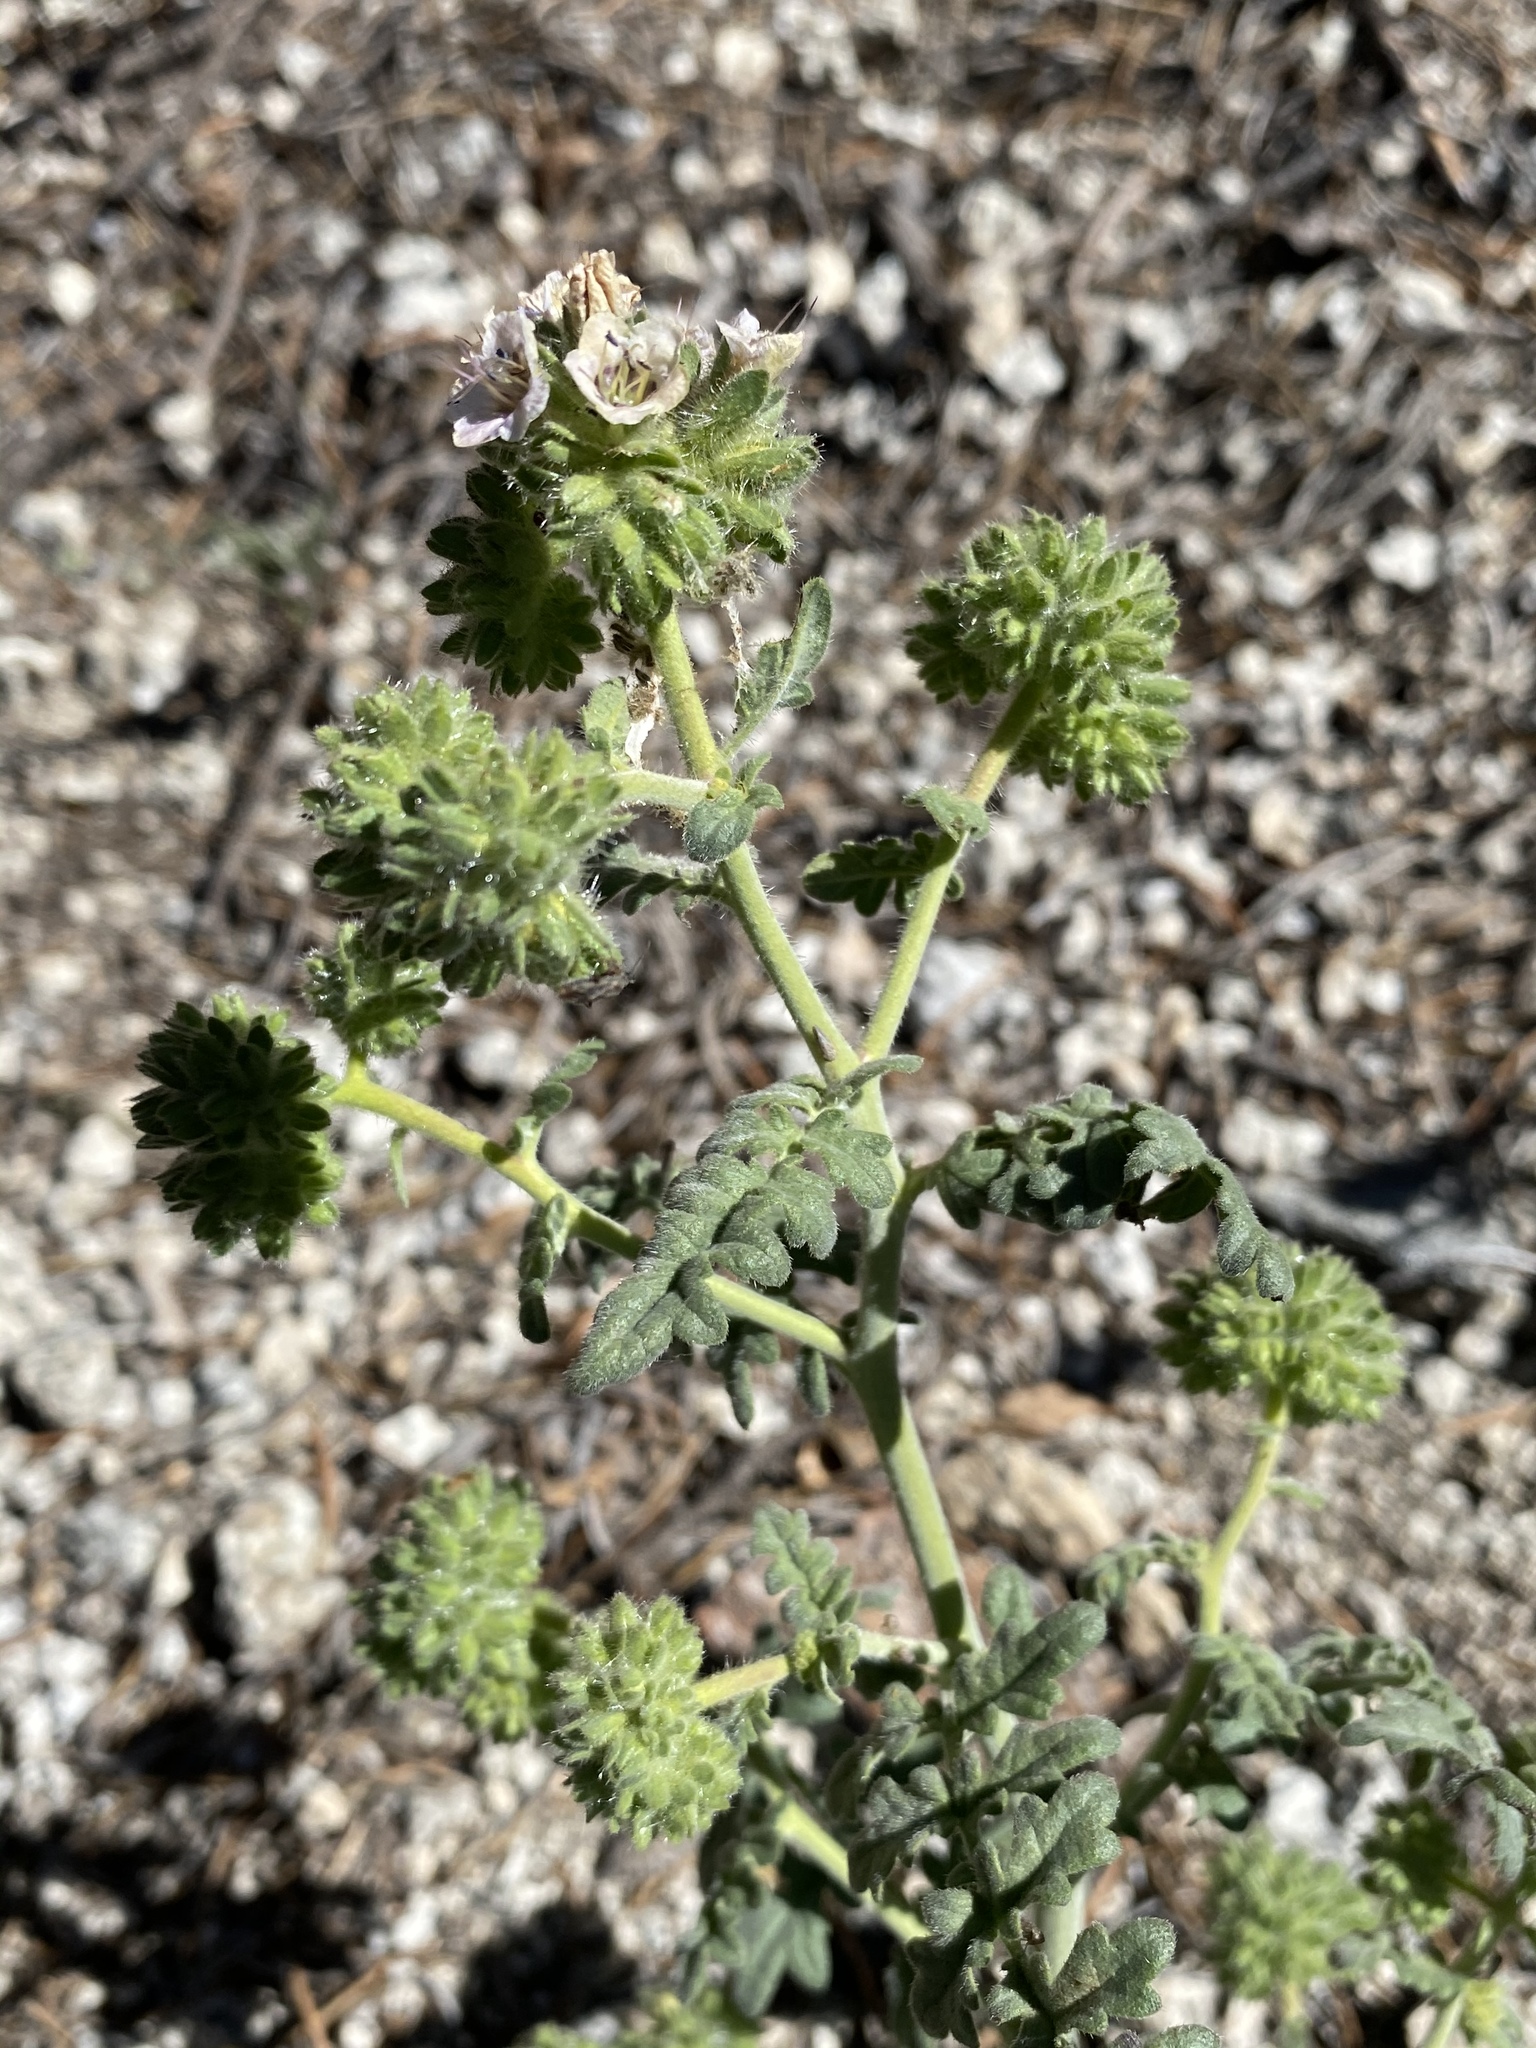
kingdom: Plantae
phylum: Tracheophyta
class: Magnoliopsida
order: Boraginales
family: Hydrophyllaceae
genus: Phacelia
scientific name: Phacelia ramosissima
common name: Branching phacelia
